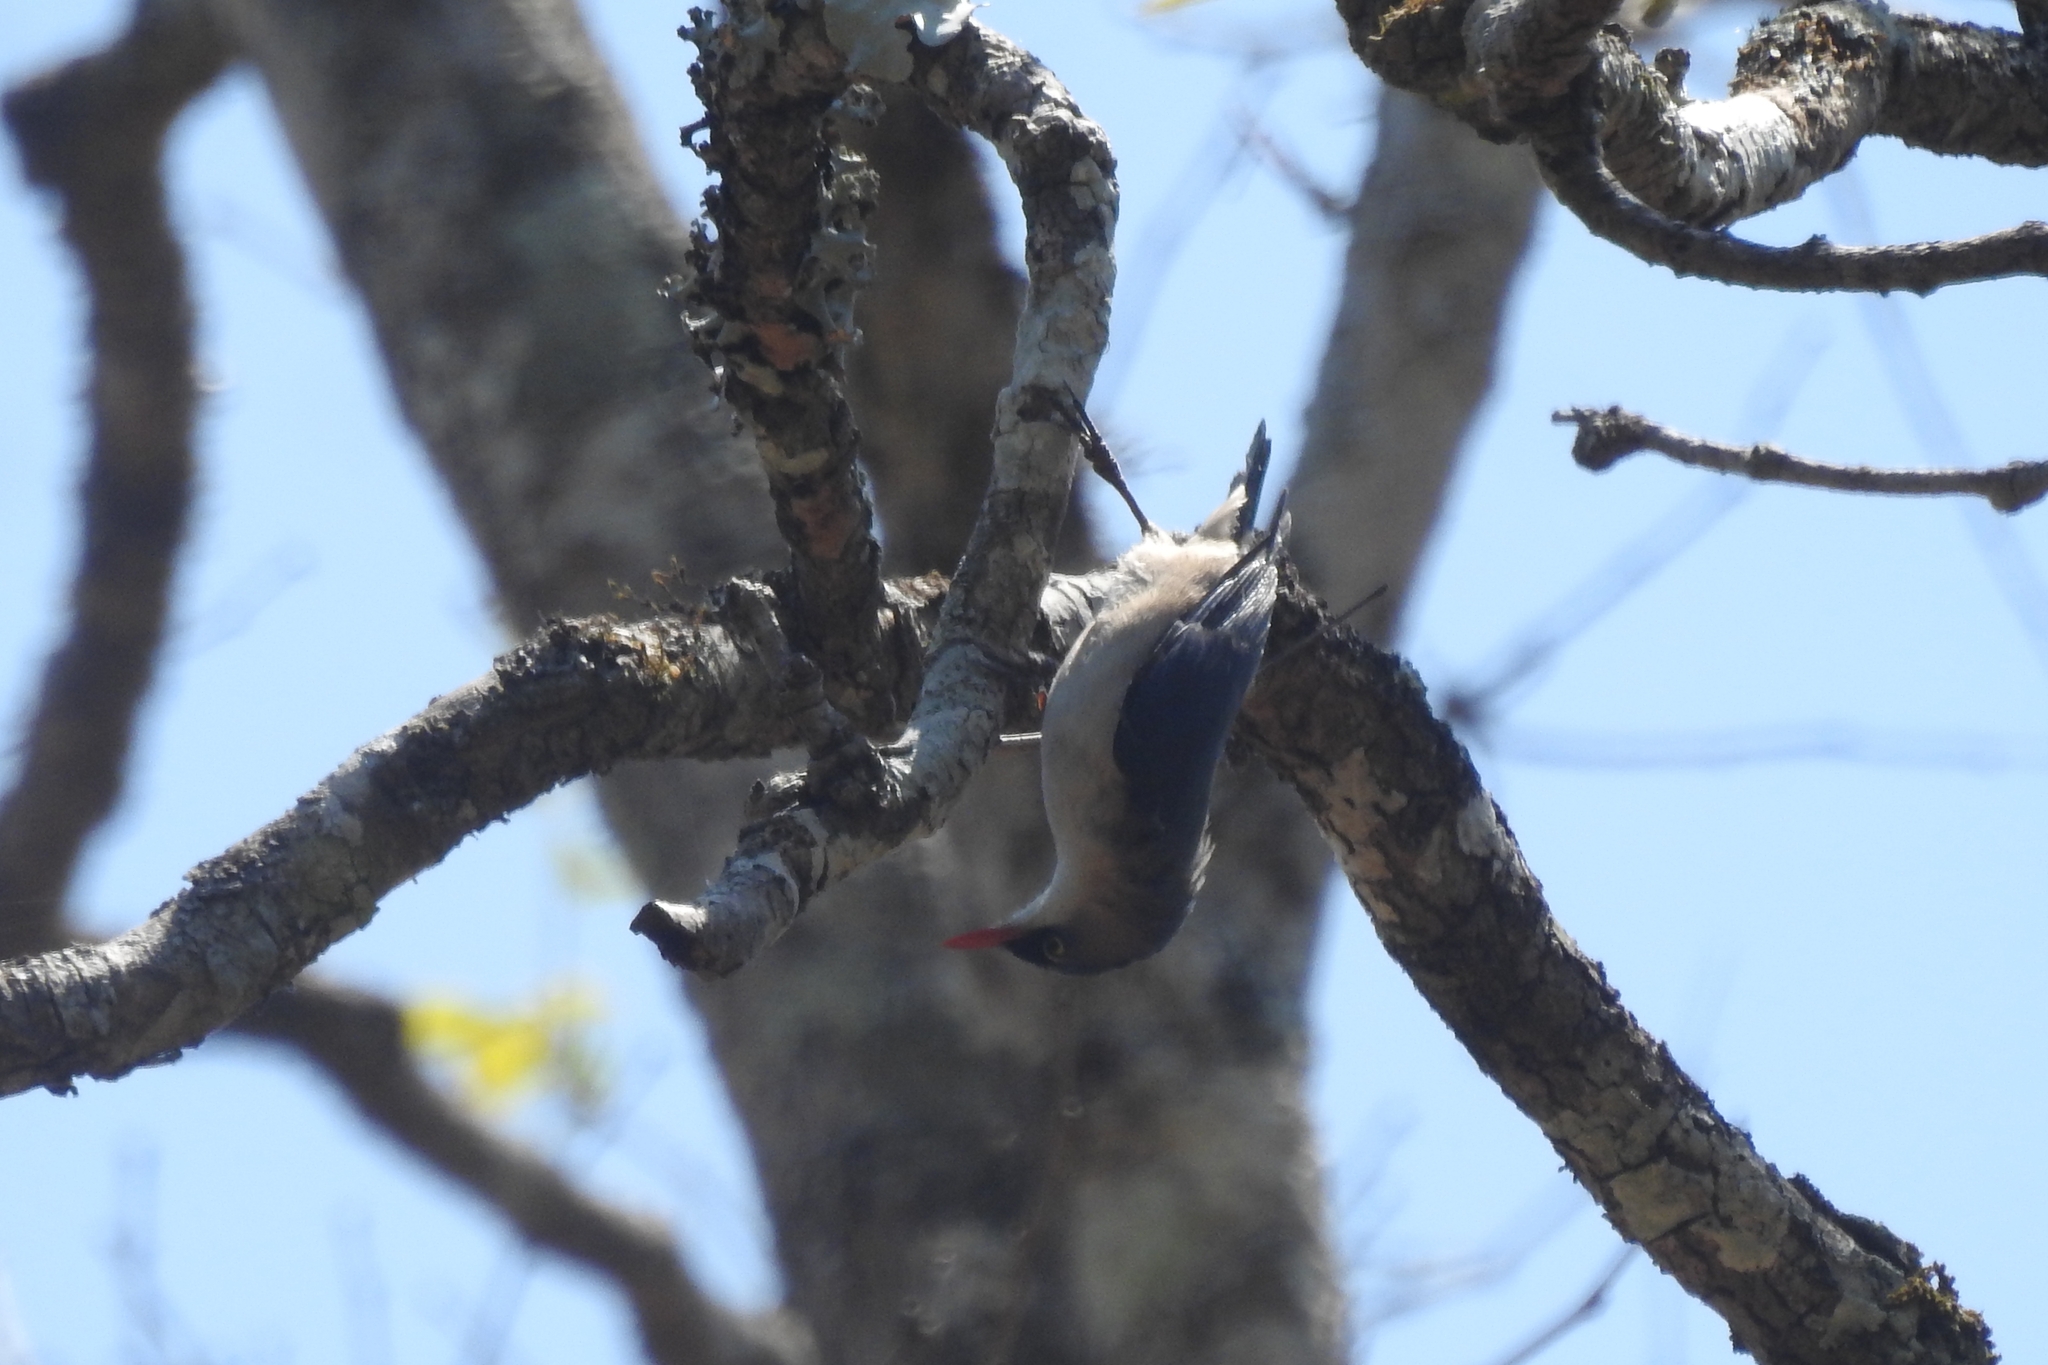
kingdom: Animalia
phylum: Chordata
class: Aves
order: Passeriformes
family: Sittidae
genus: Sitta
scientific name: Sitta frontalis
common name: Velvet-fronted nuthatch
